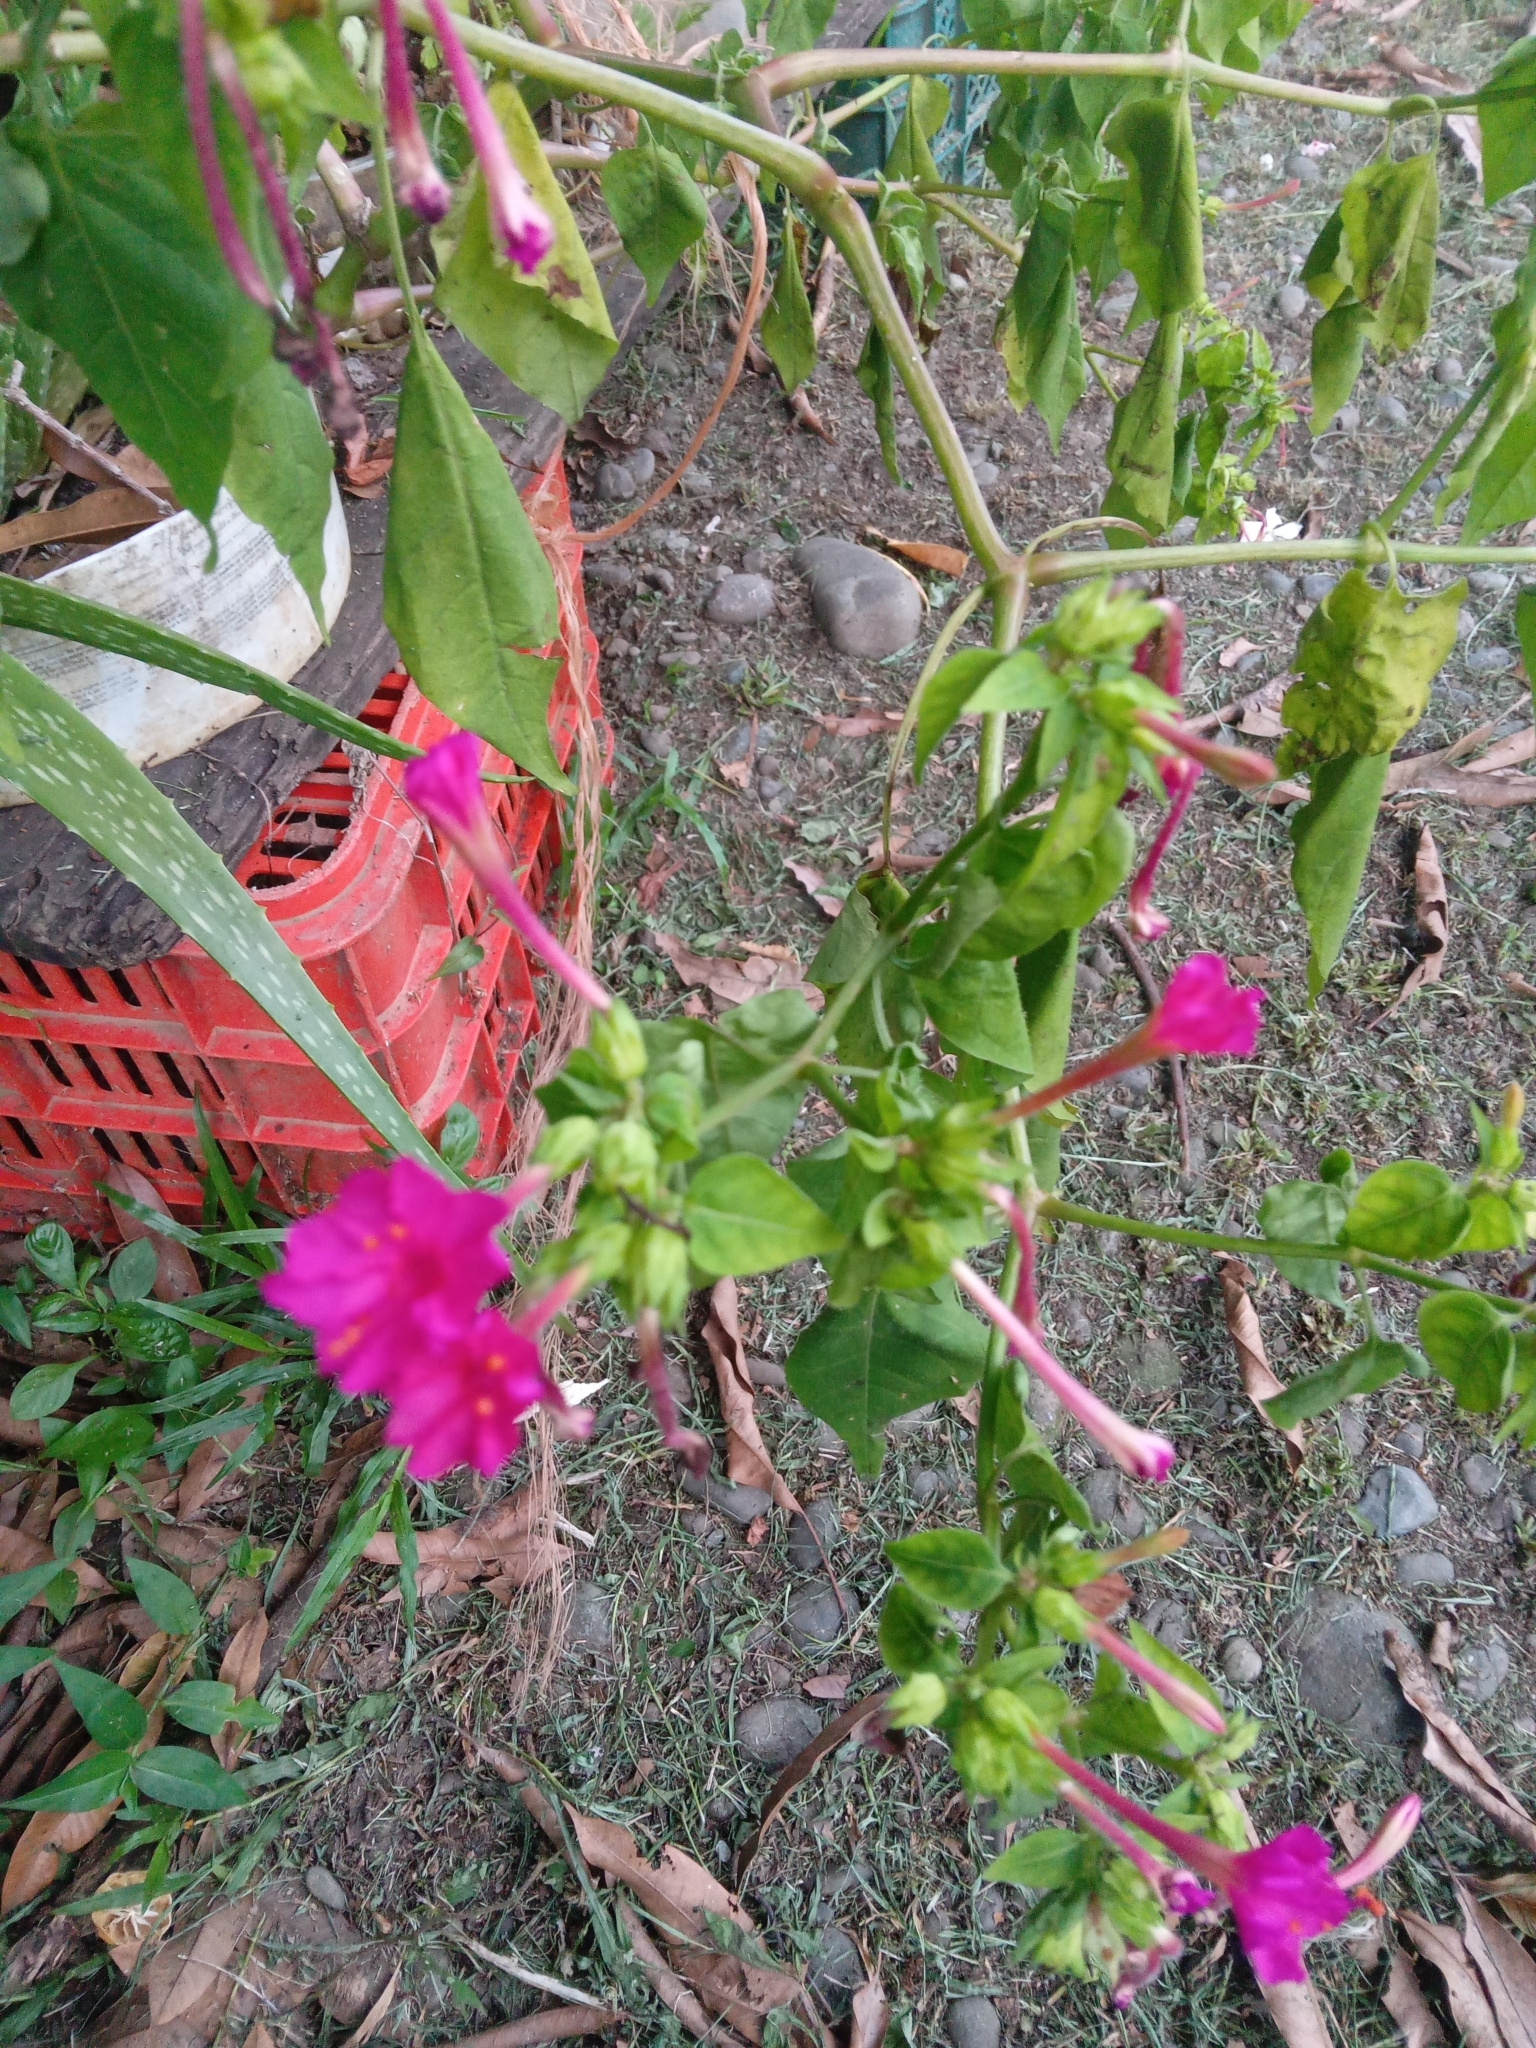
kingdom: Plantae
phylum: Tracheophyta
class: Magnoliopsida
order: Caryophyllales
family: Nyctaginaceae
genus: Mirabilis
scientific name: Mirabilis jalapa
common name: Marvel-of-peru
